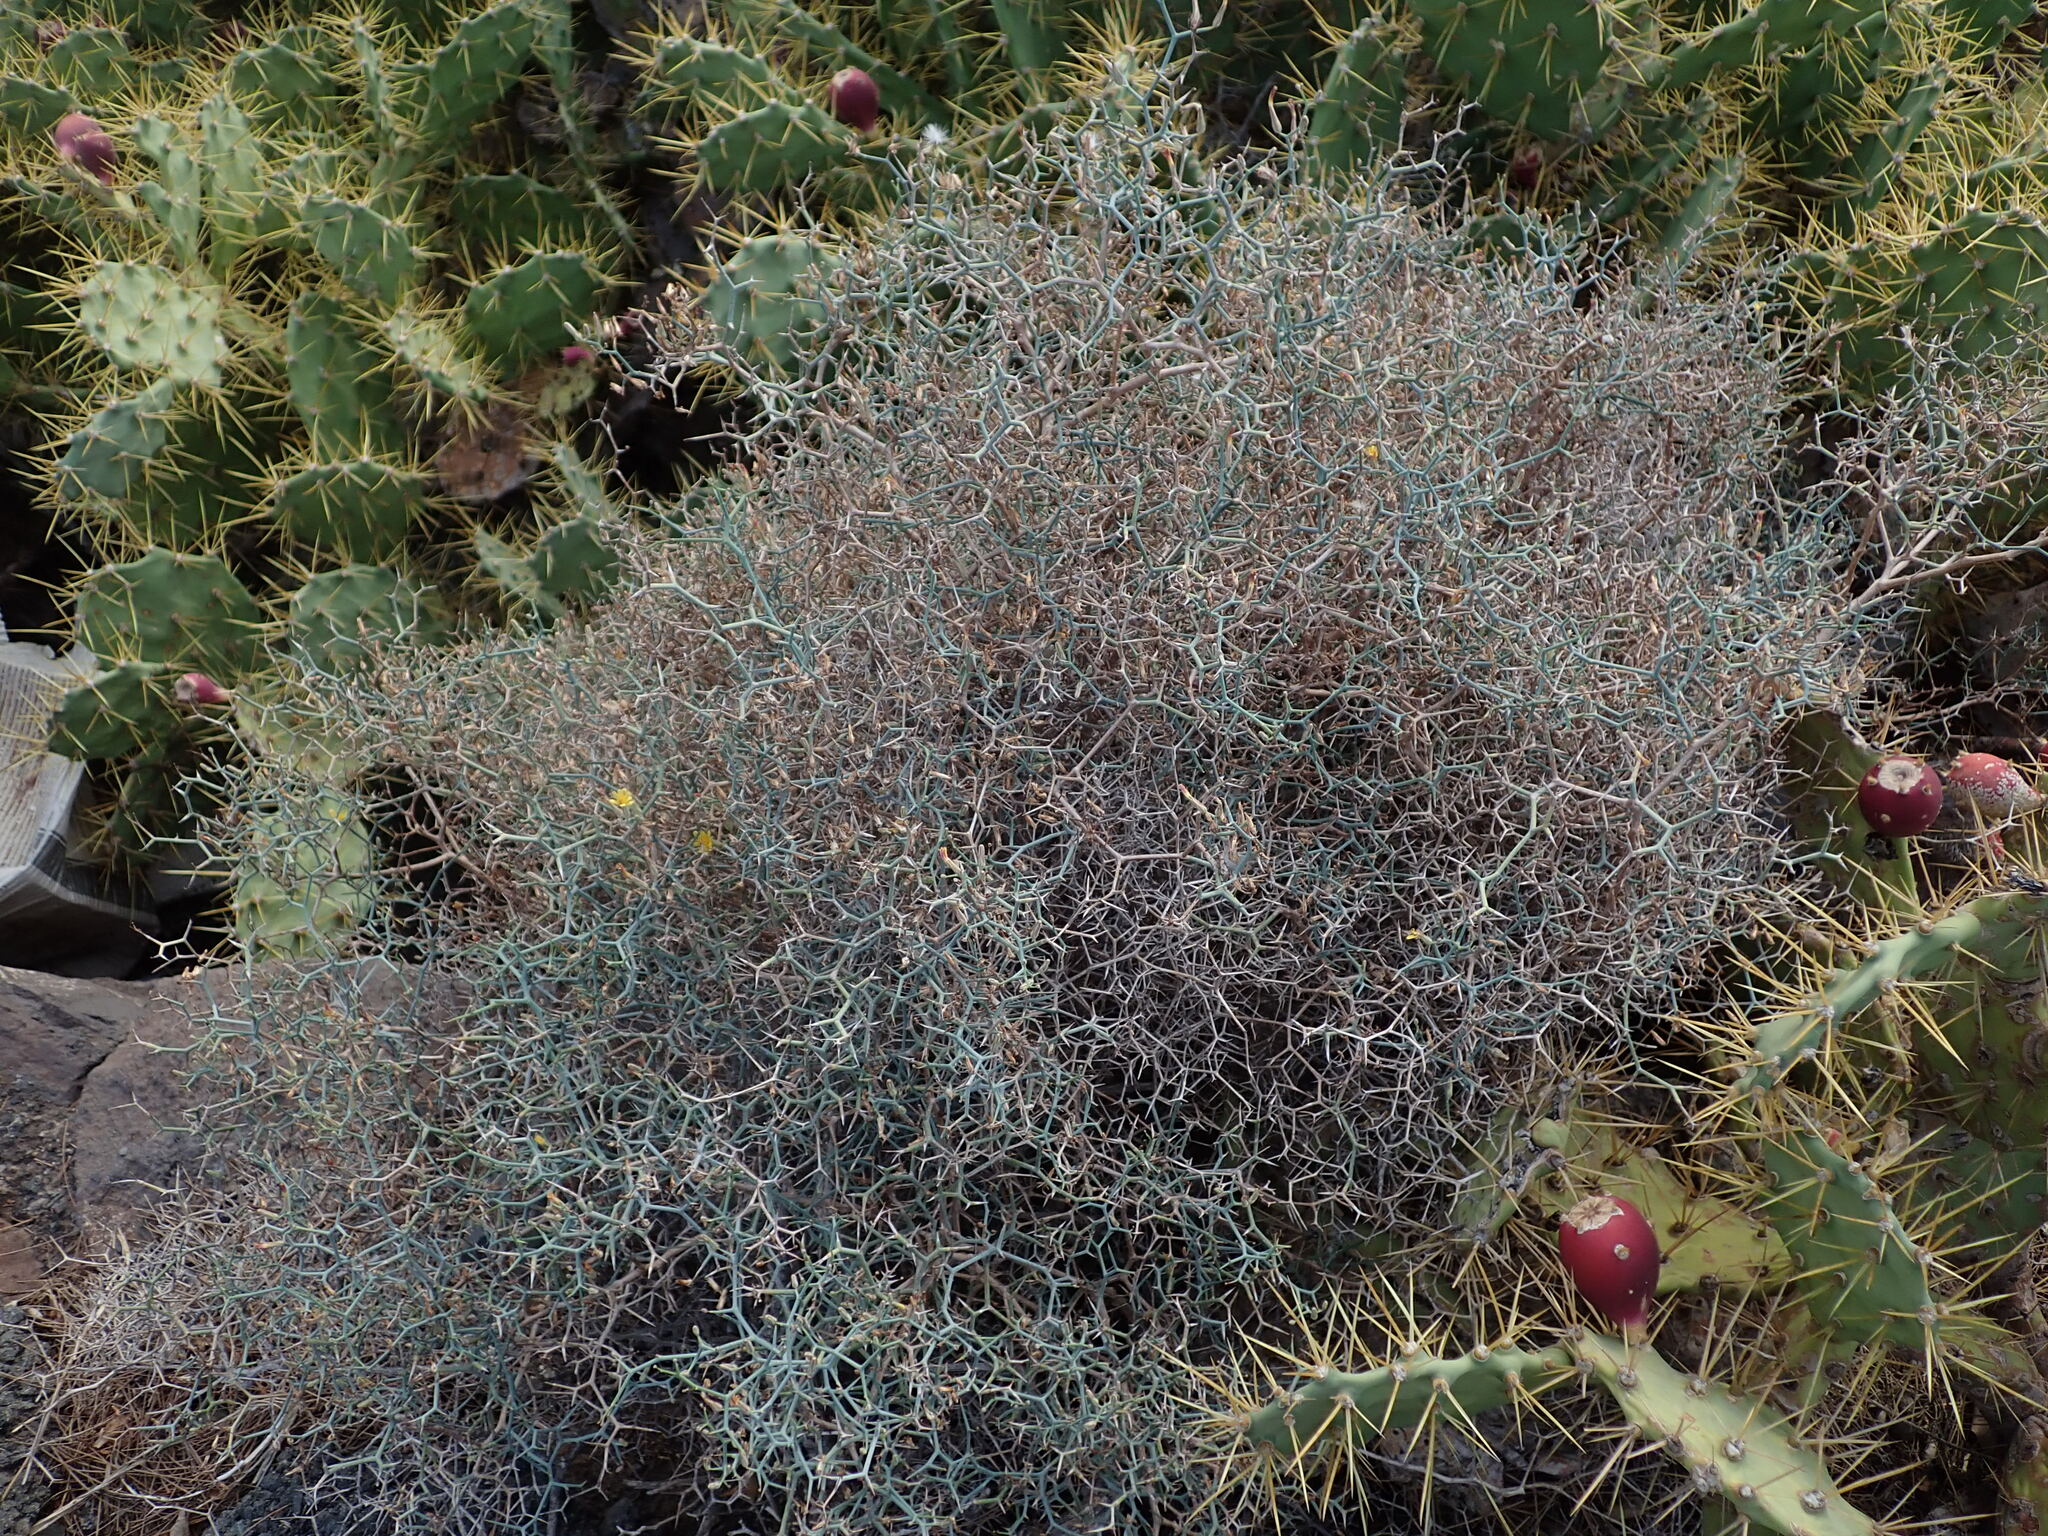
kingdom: Plantae
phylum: Tracheophyta
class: Magnoliopsida
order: Asterales
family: Asteraceae
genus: Launaea
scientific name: Launaea arborescens
